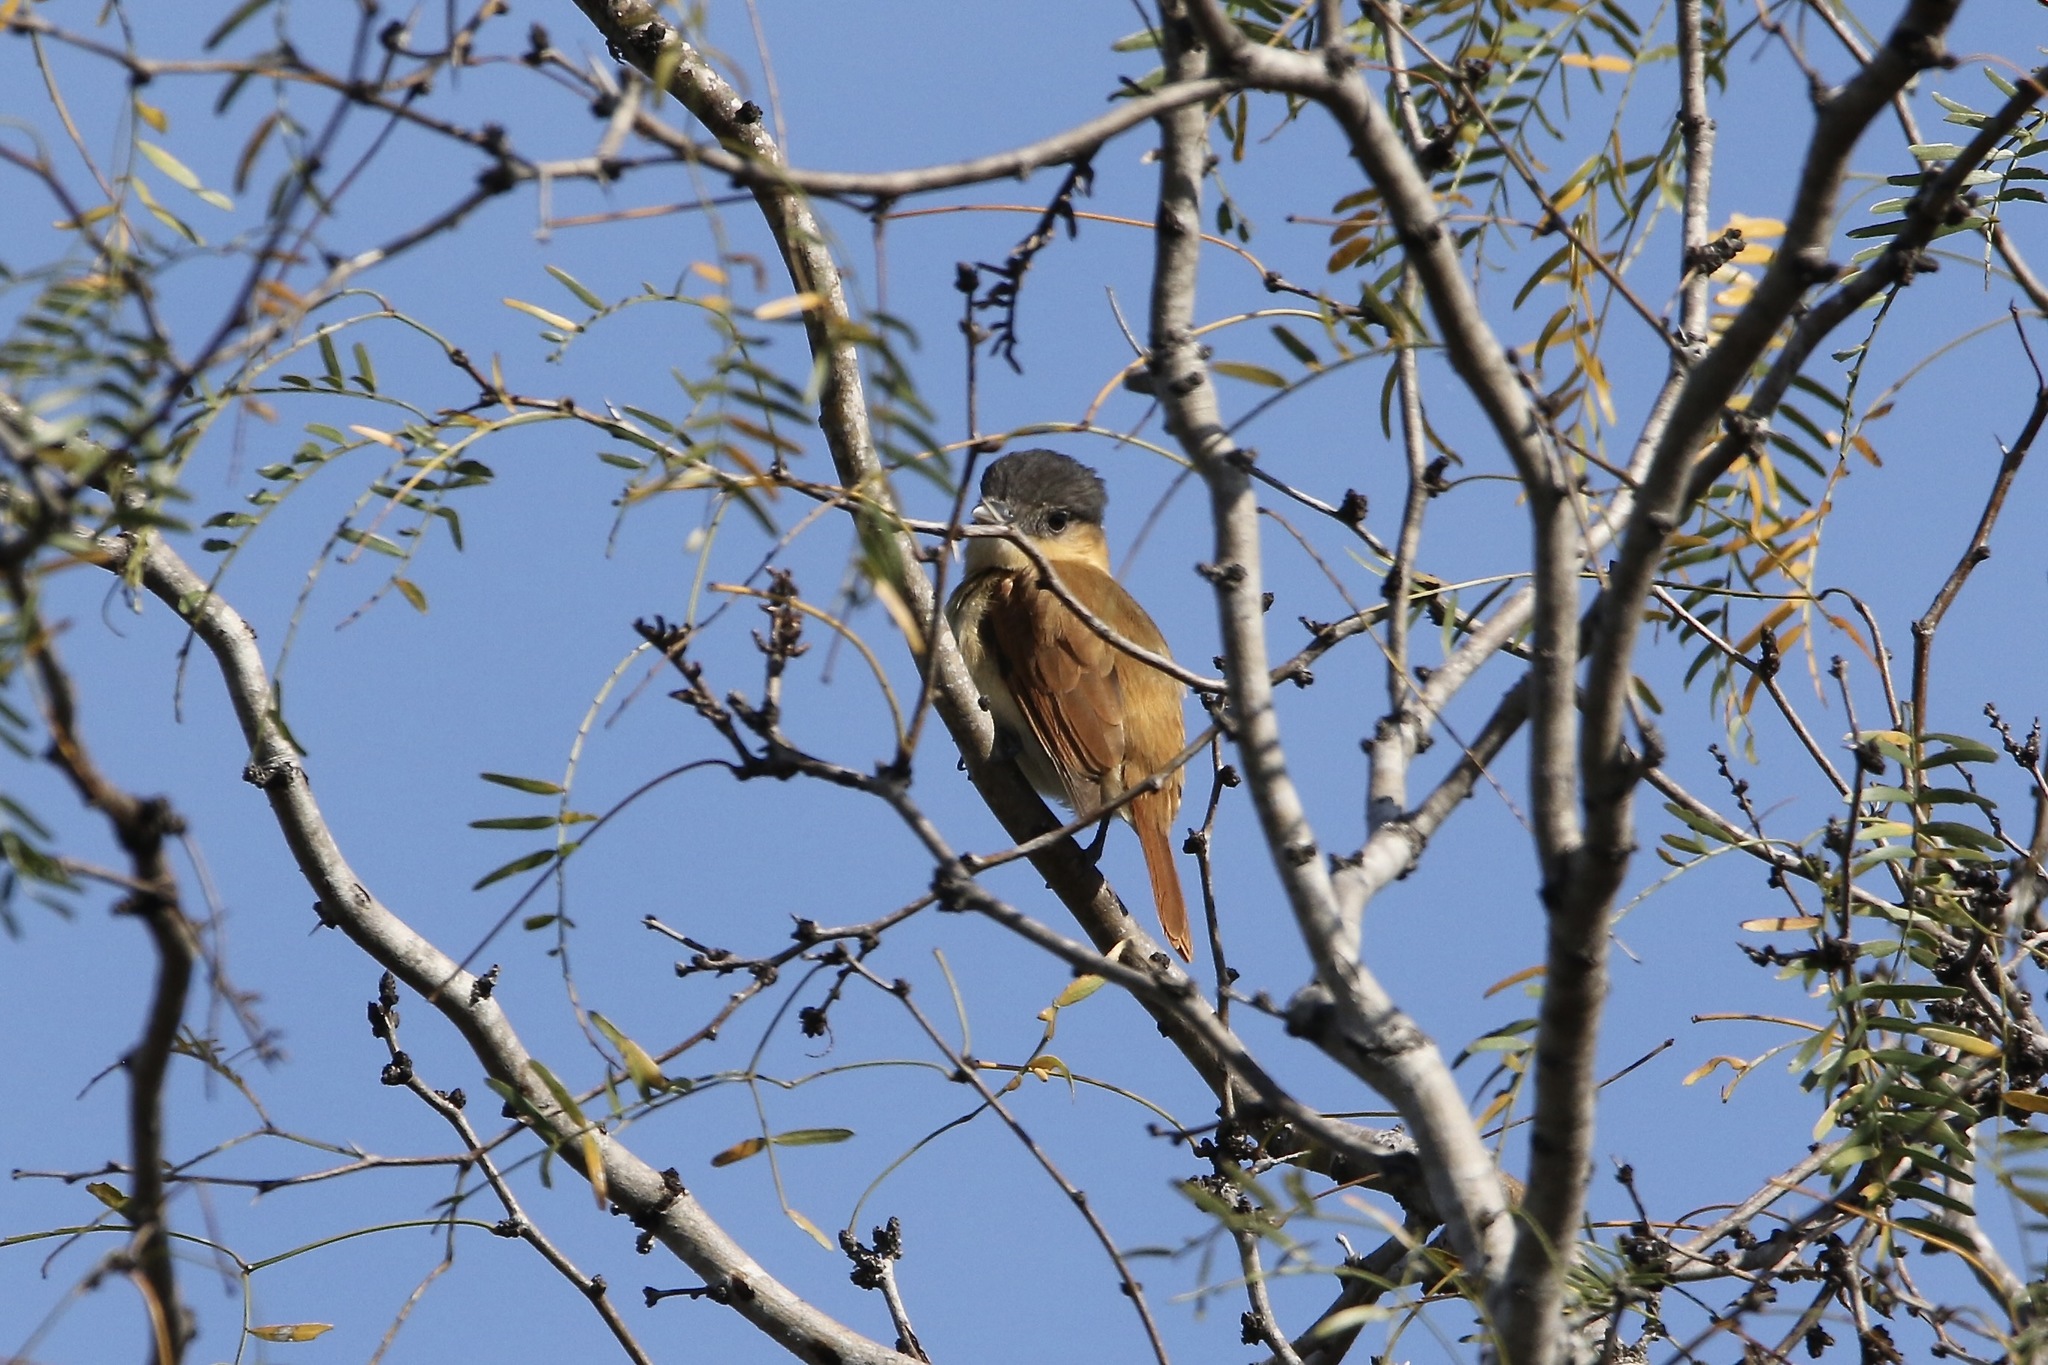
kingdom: Animalia
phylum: Chordata
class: Aves
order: Passeriformes
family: Cotingidae
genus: Pachyramphus
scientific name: Pachyramphus aglaiae
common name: Rose-throated becard
